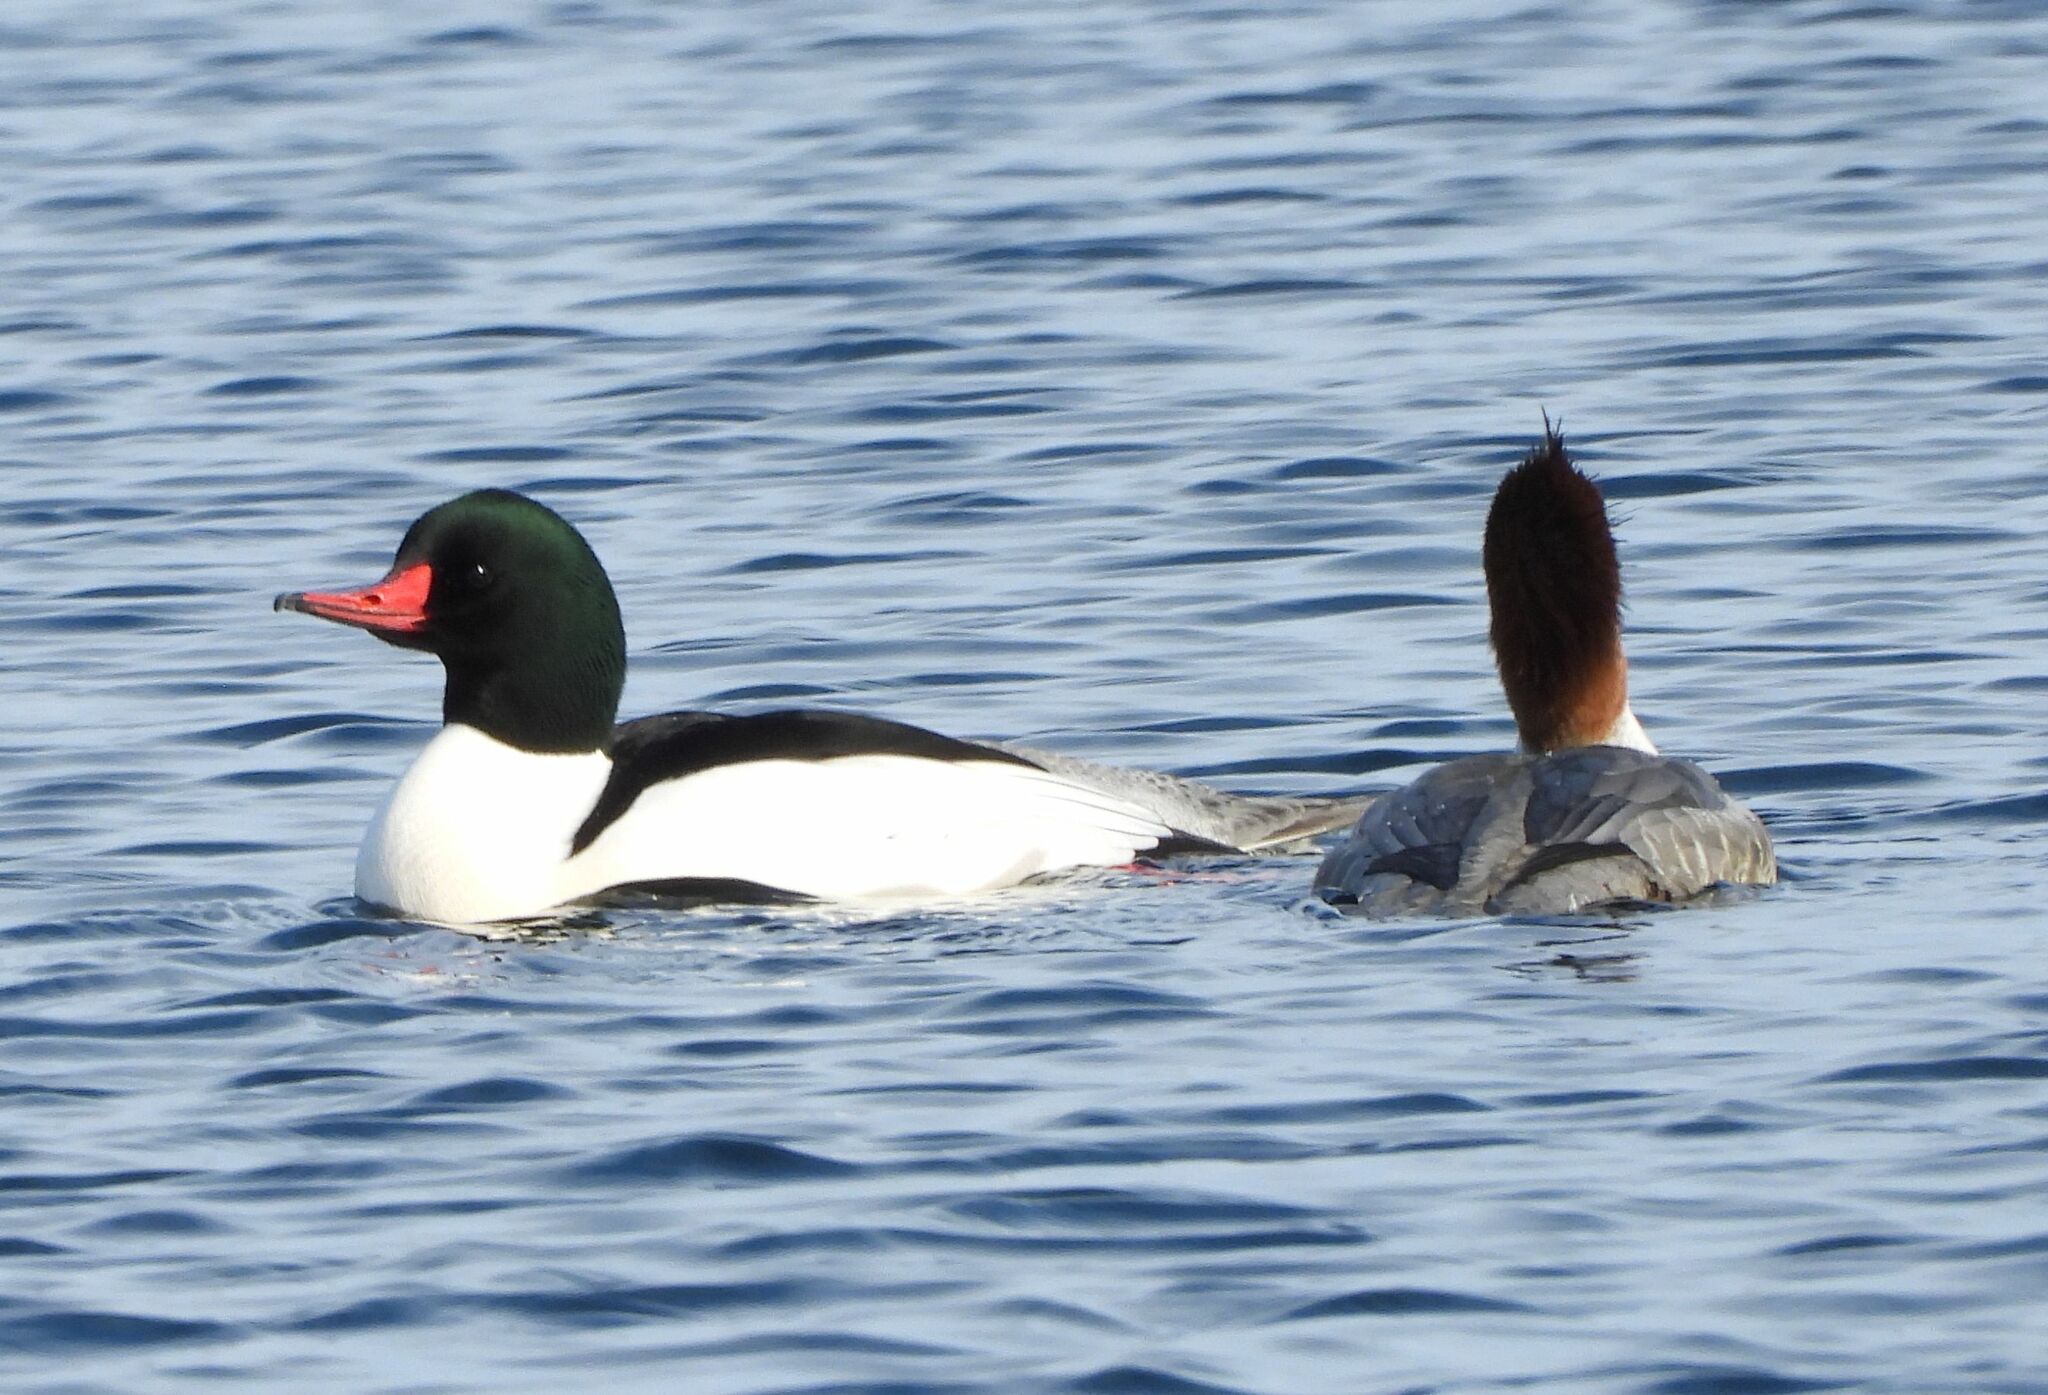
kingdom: Animalia
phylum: Chordata
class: Aves
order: Anseriformes
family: Anatidae
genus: Mergus
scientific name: Mergus merganser
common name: Common merganser
